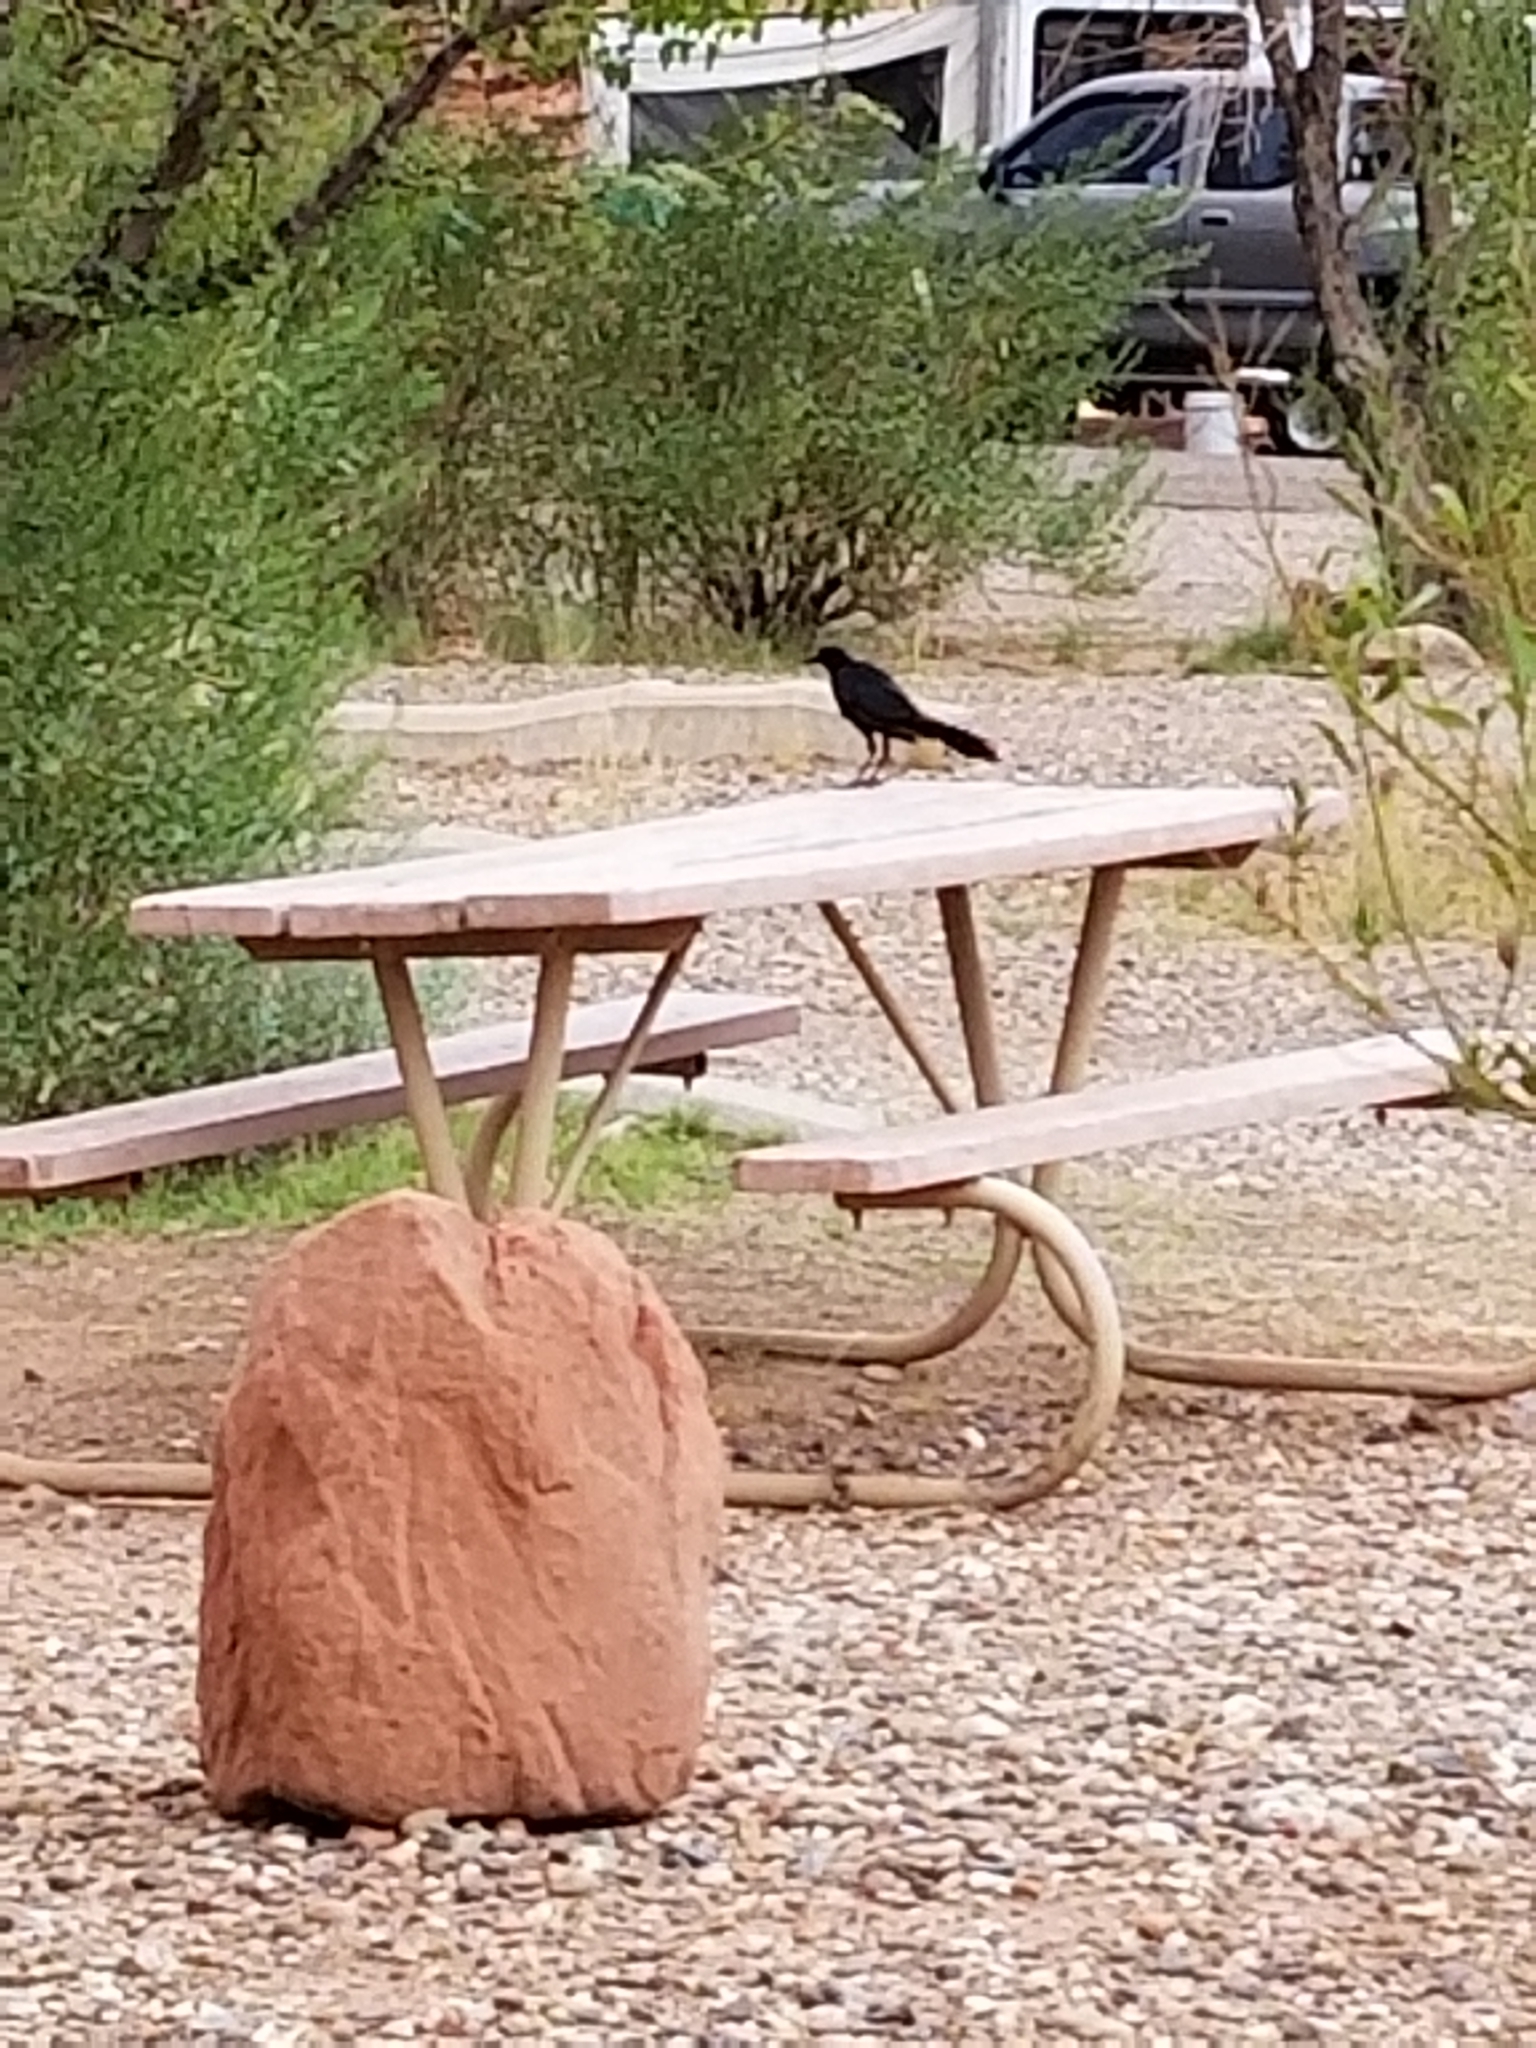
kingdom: Animalia
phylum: Chordata
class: Aves
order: Passeriformes
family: Icteridae
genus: Quiscalus
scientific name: Quiscalus mexicanus
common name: Great-tailed grackle
